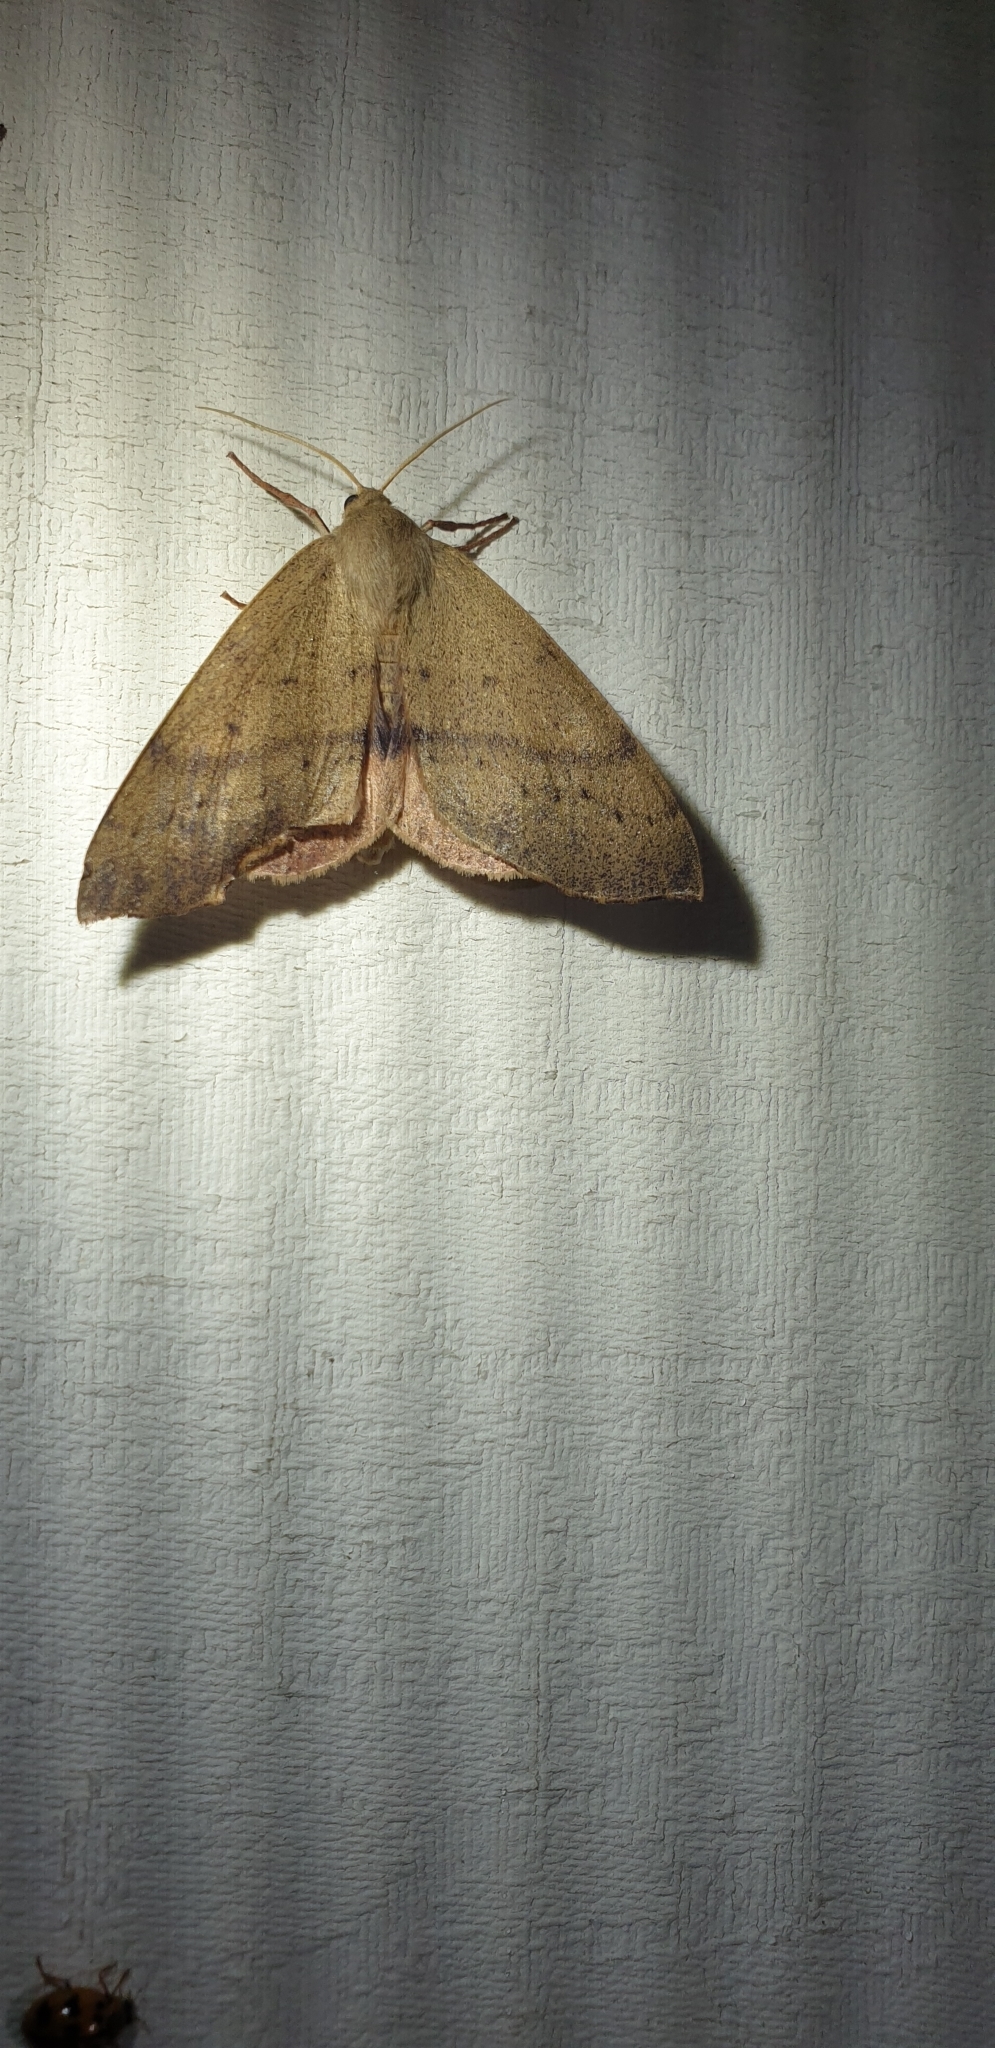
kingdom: Animalia
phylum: Arthropoda
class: Insecta
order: Lepidoptera
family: Geometridae
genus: Arhodia
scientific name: Arhodia lasiocamparia
